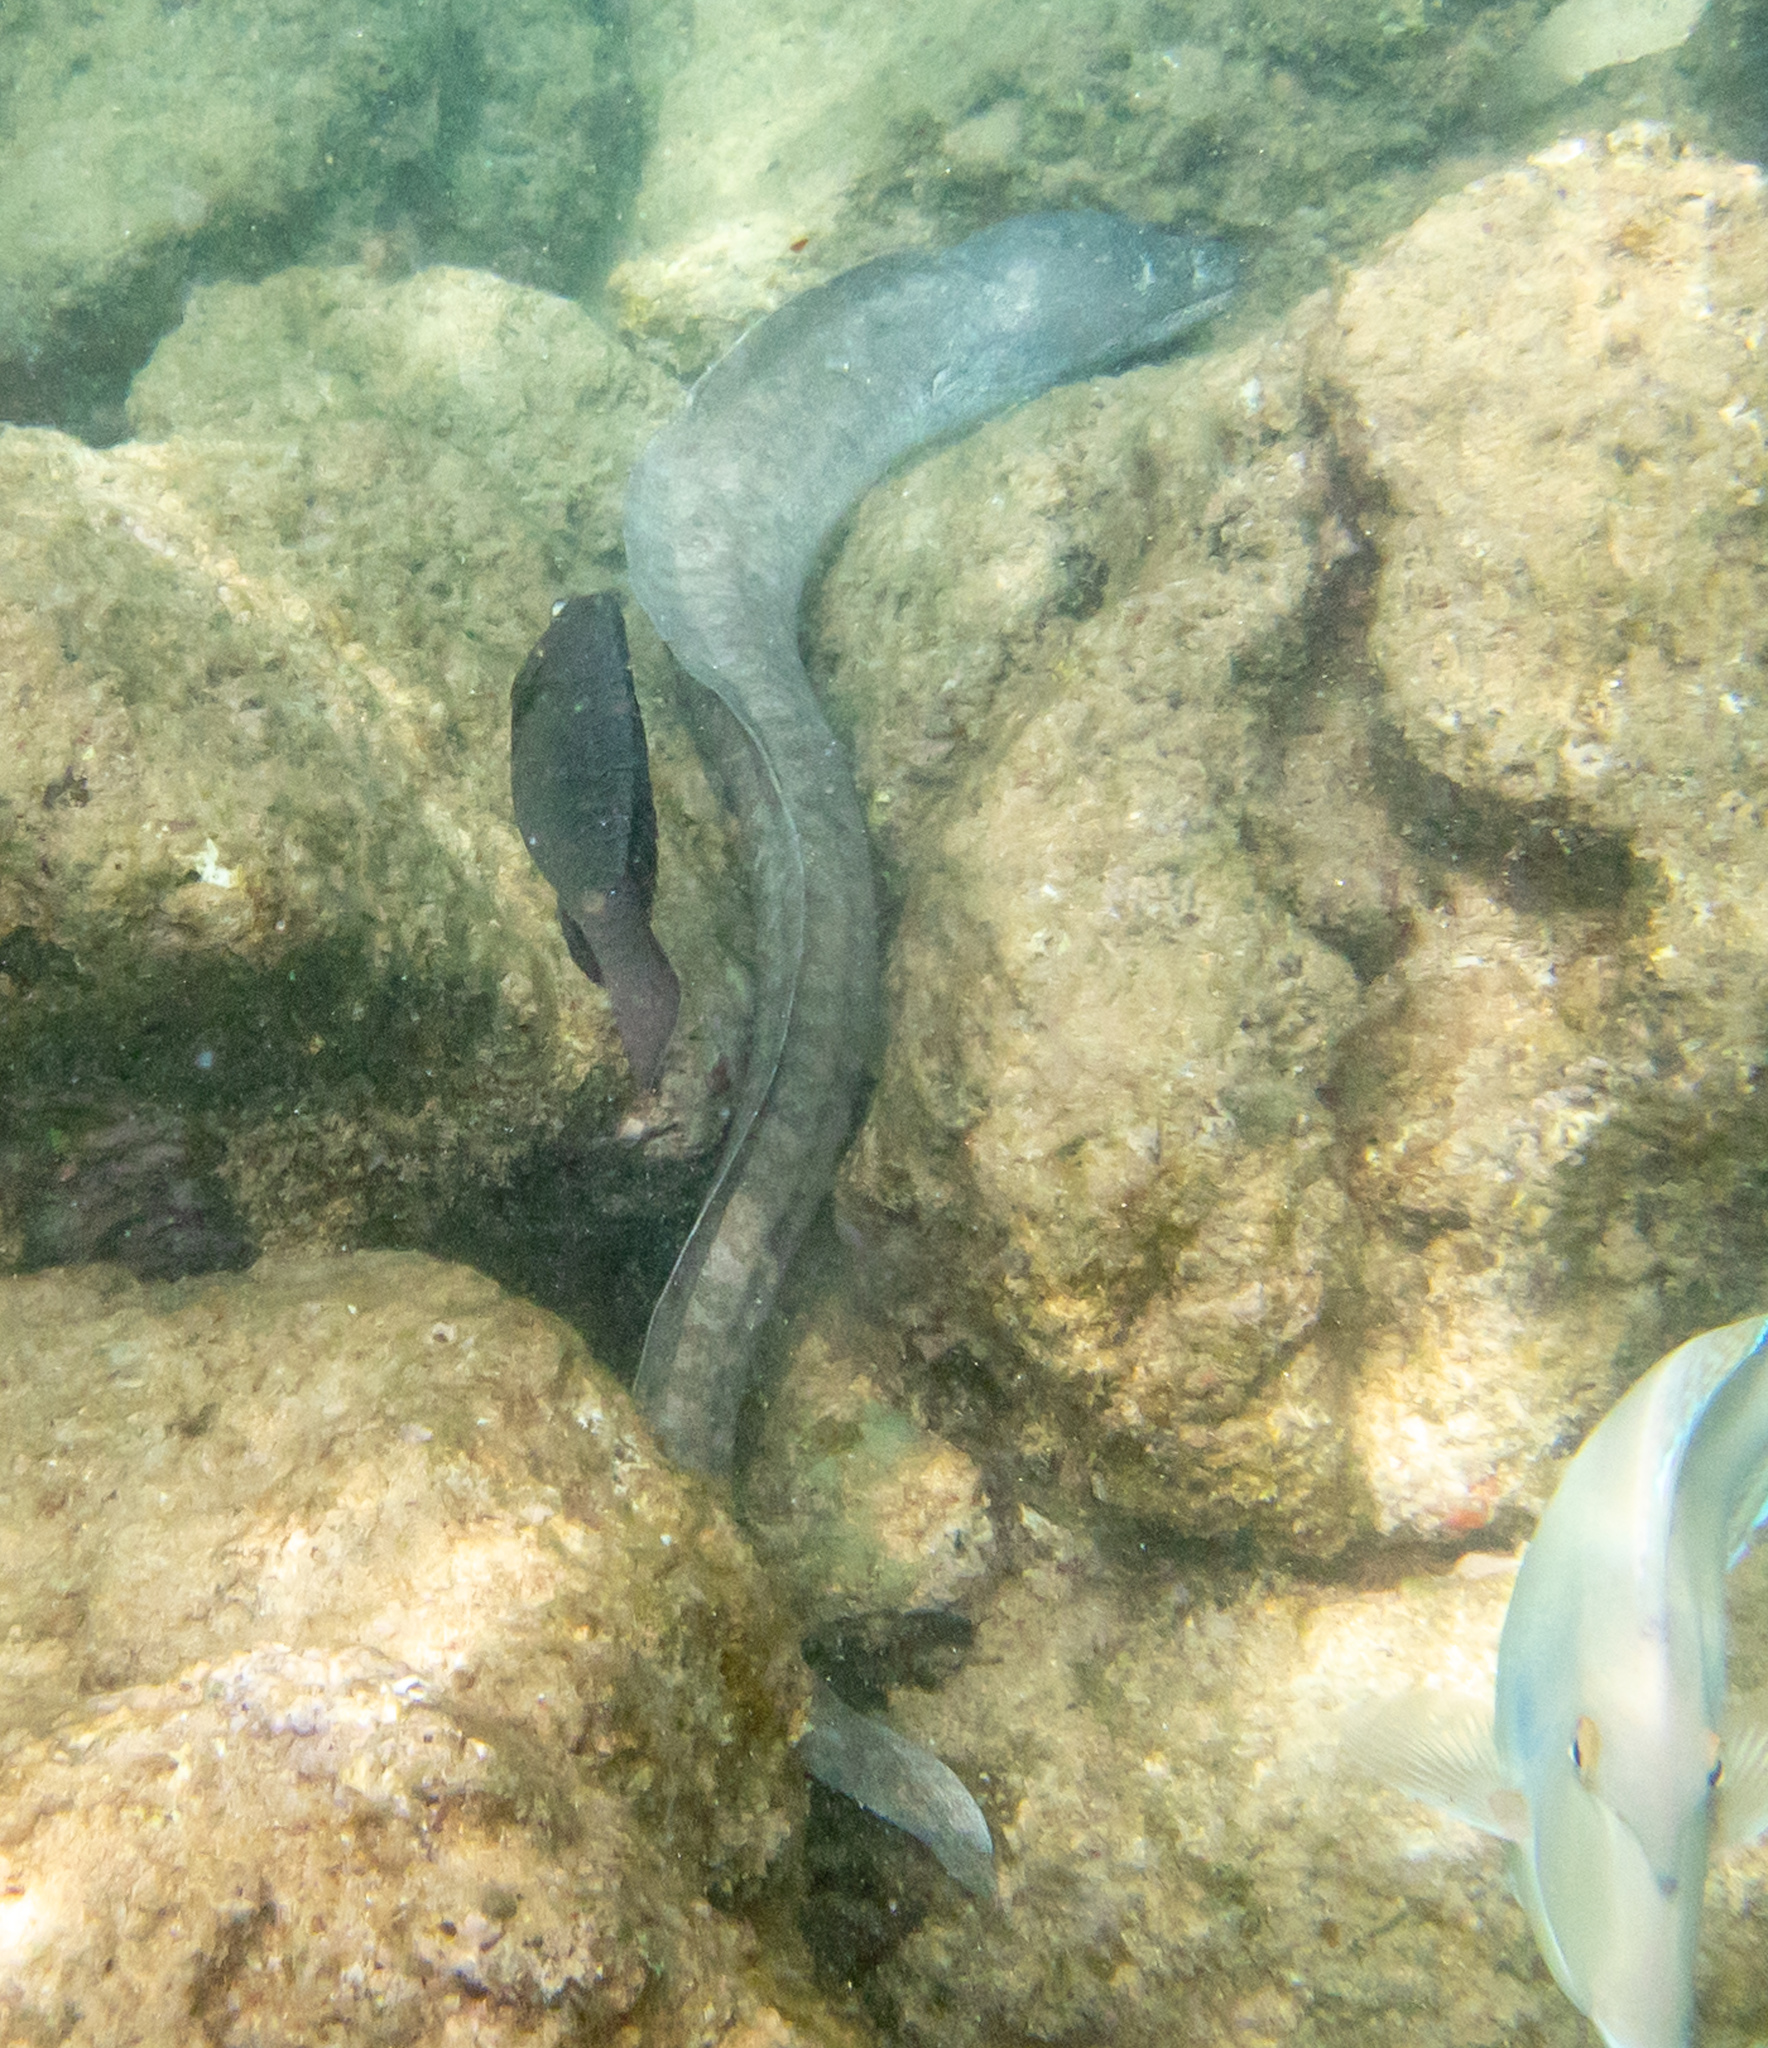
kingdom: Animalia
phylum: Chordata
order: Anguilliformes
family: Muraenidae
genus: Gymnothorax
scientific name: Gymnothorax pictus
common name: Peppered moray
